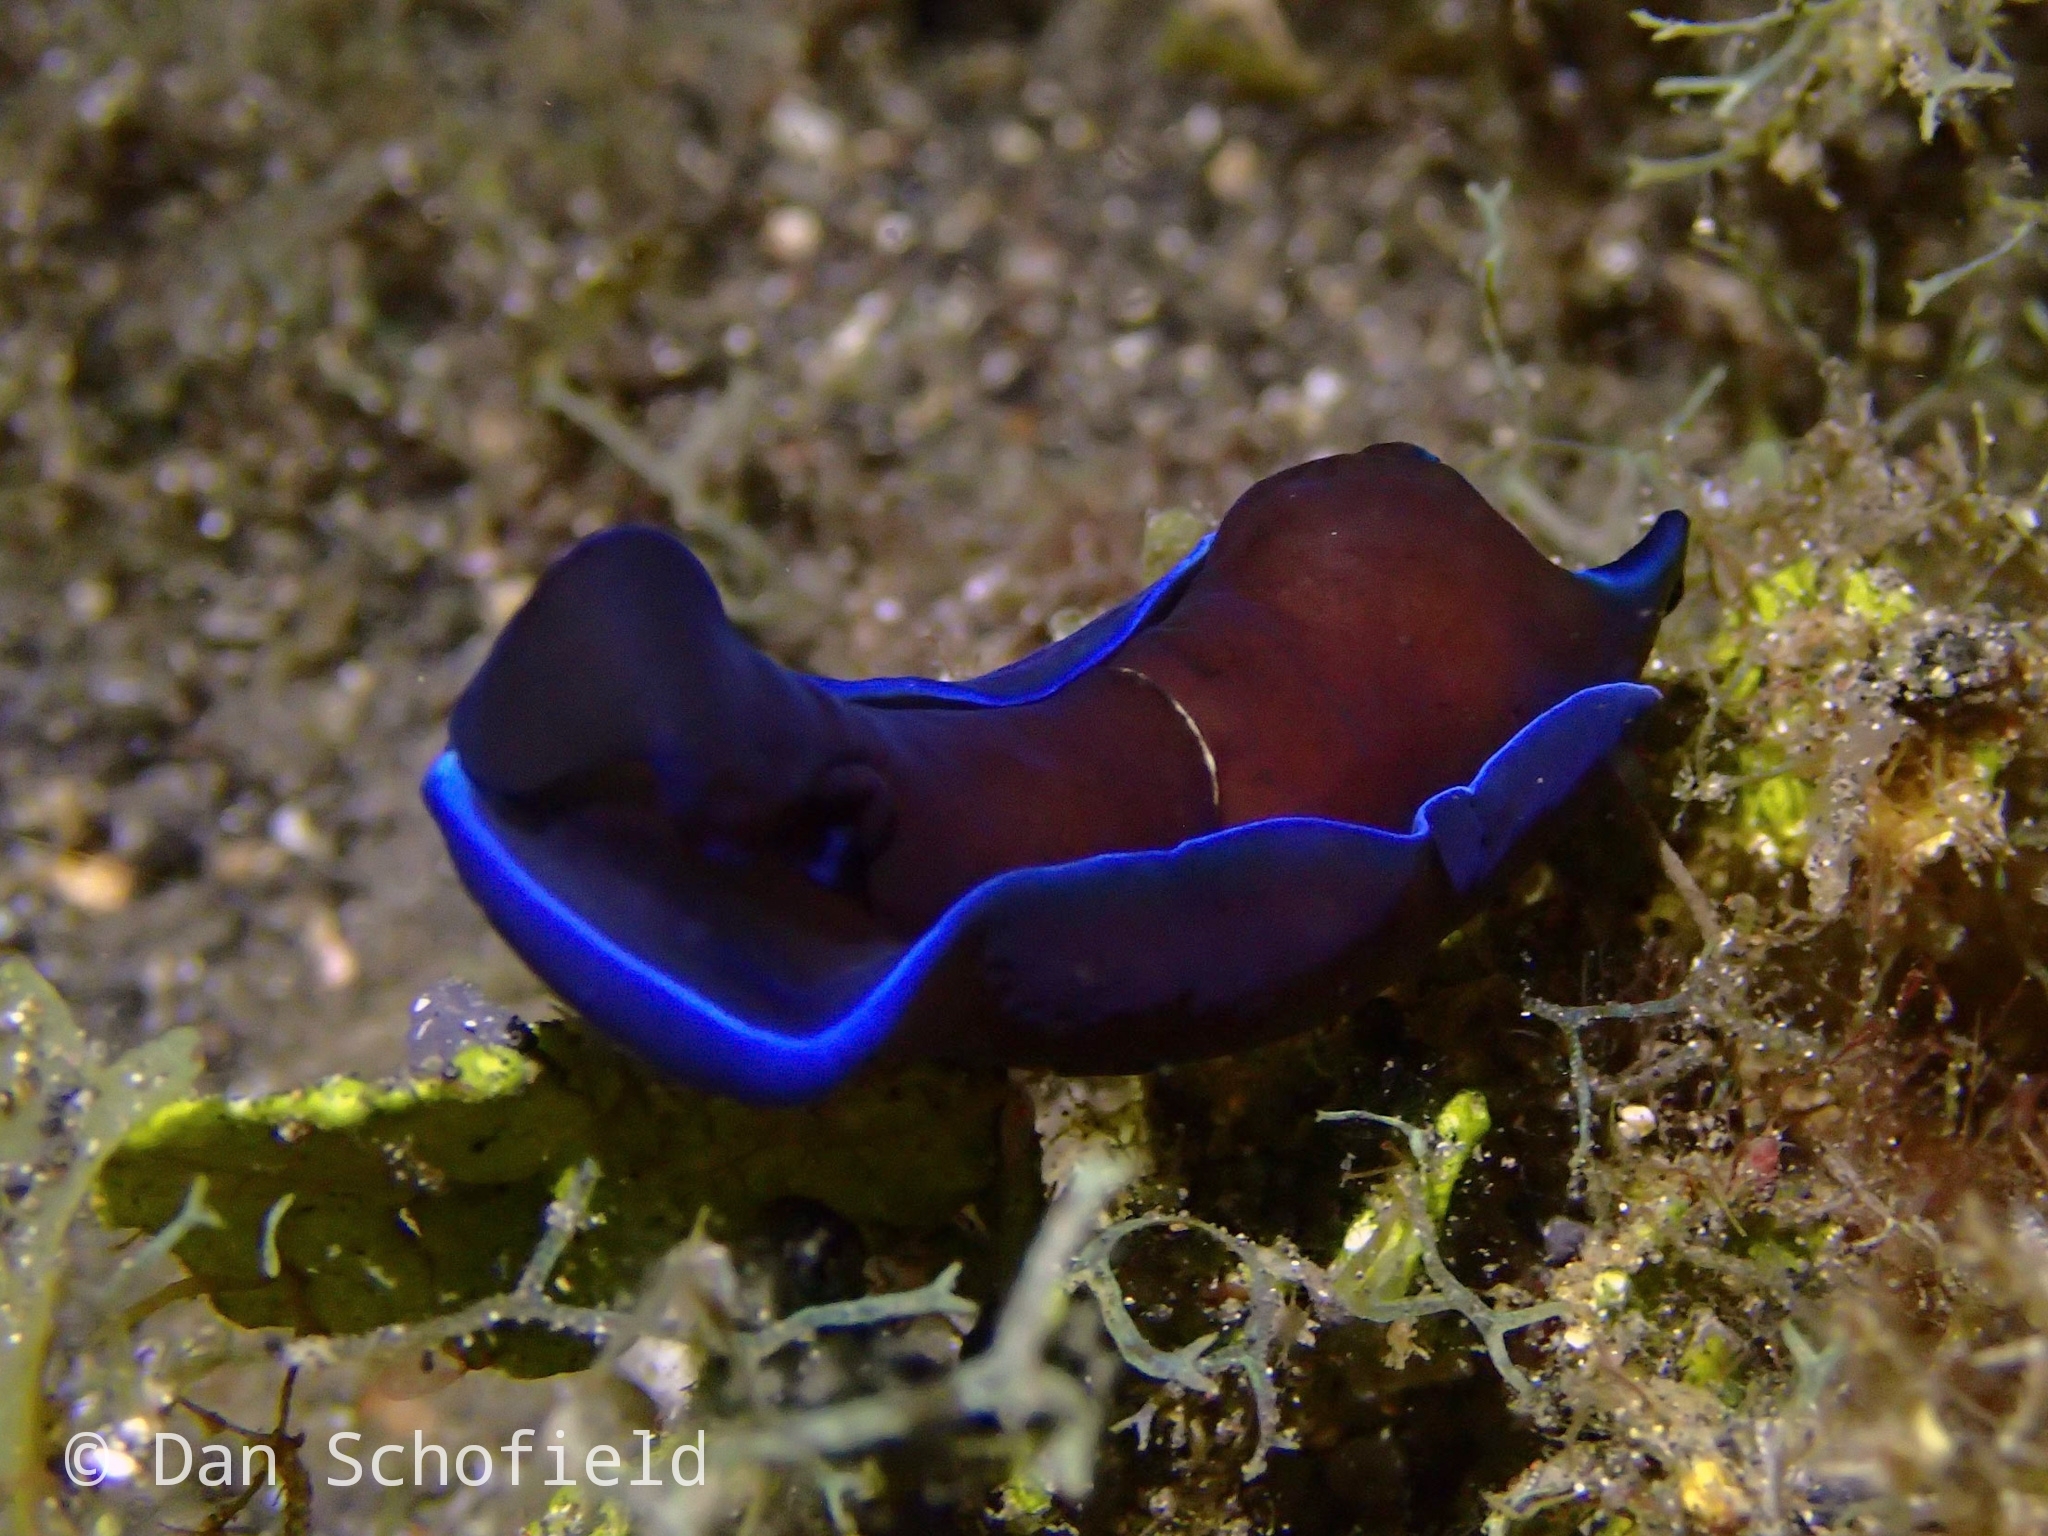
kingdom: Animalia
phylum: Mollusca
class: Gastropoda
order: Cephalaspidea
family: Aglajidae
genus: Tubulophilinopsis
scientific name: Tubulophilinopsis gardineri
